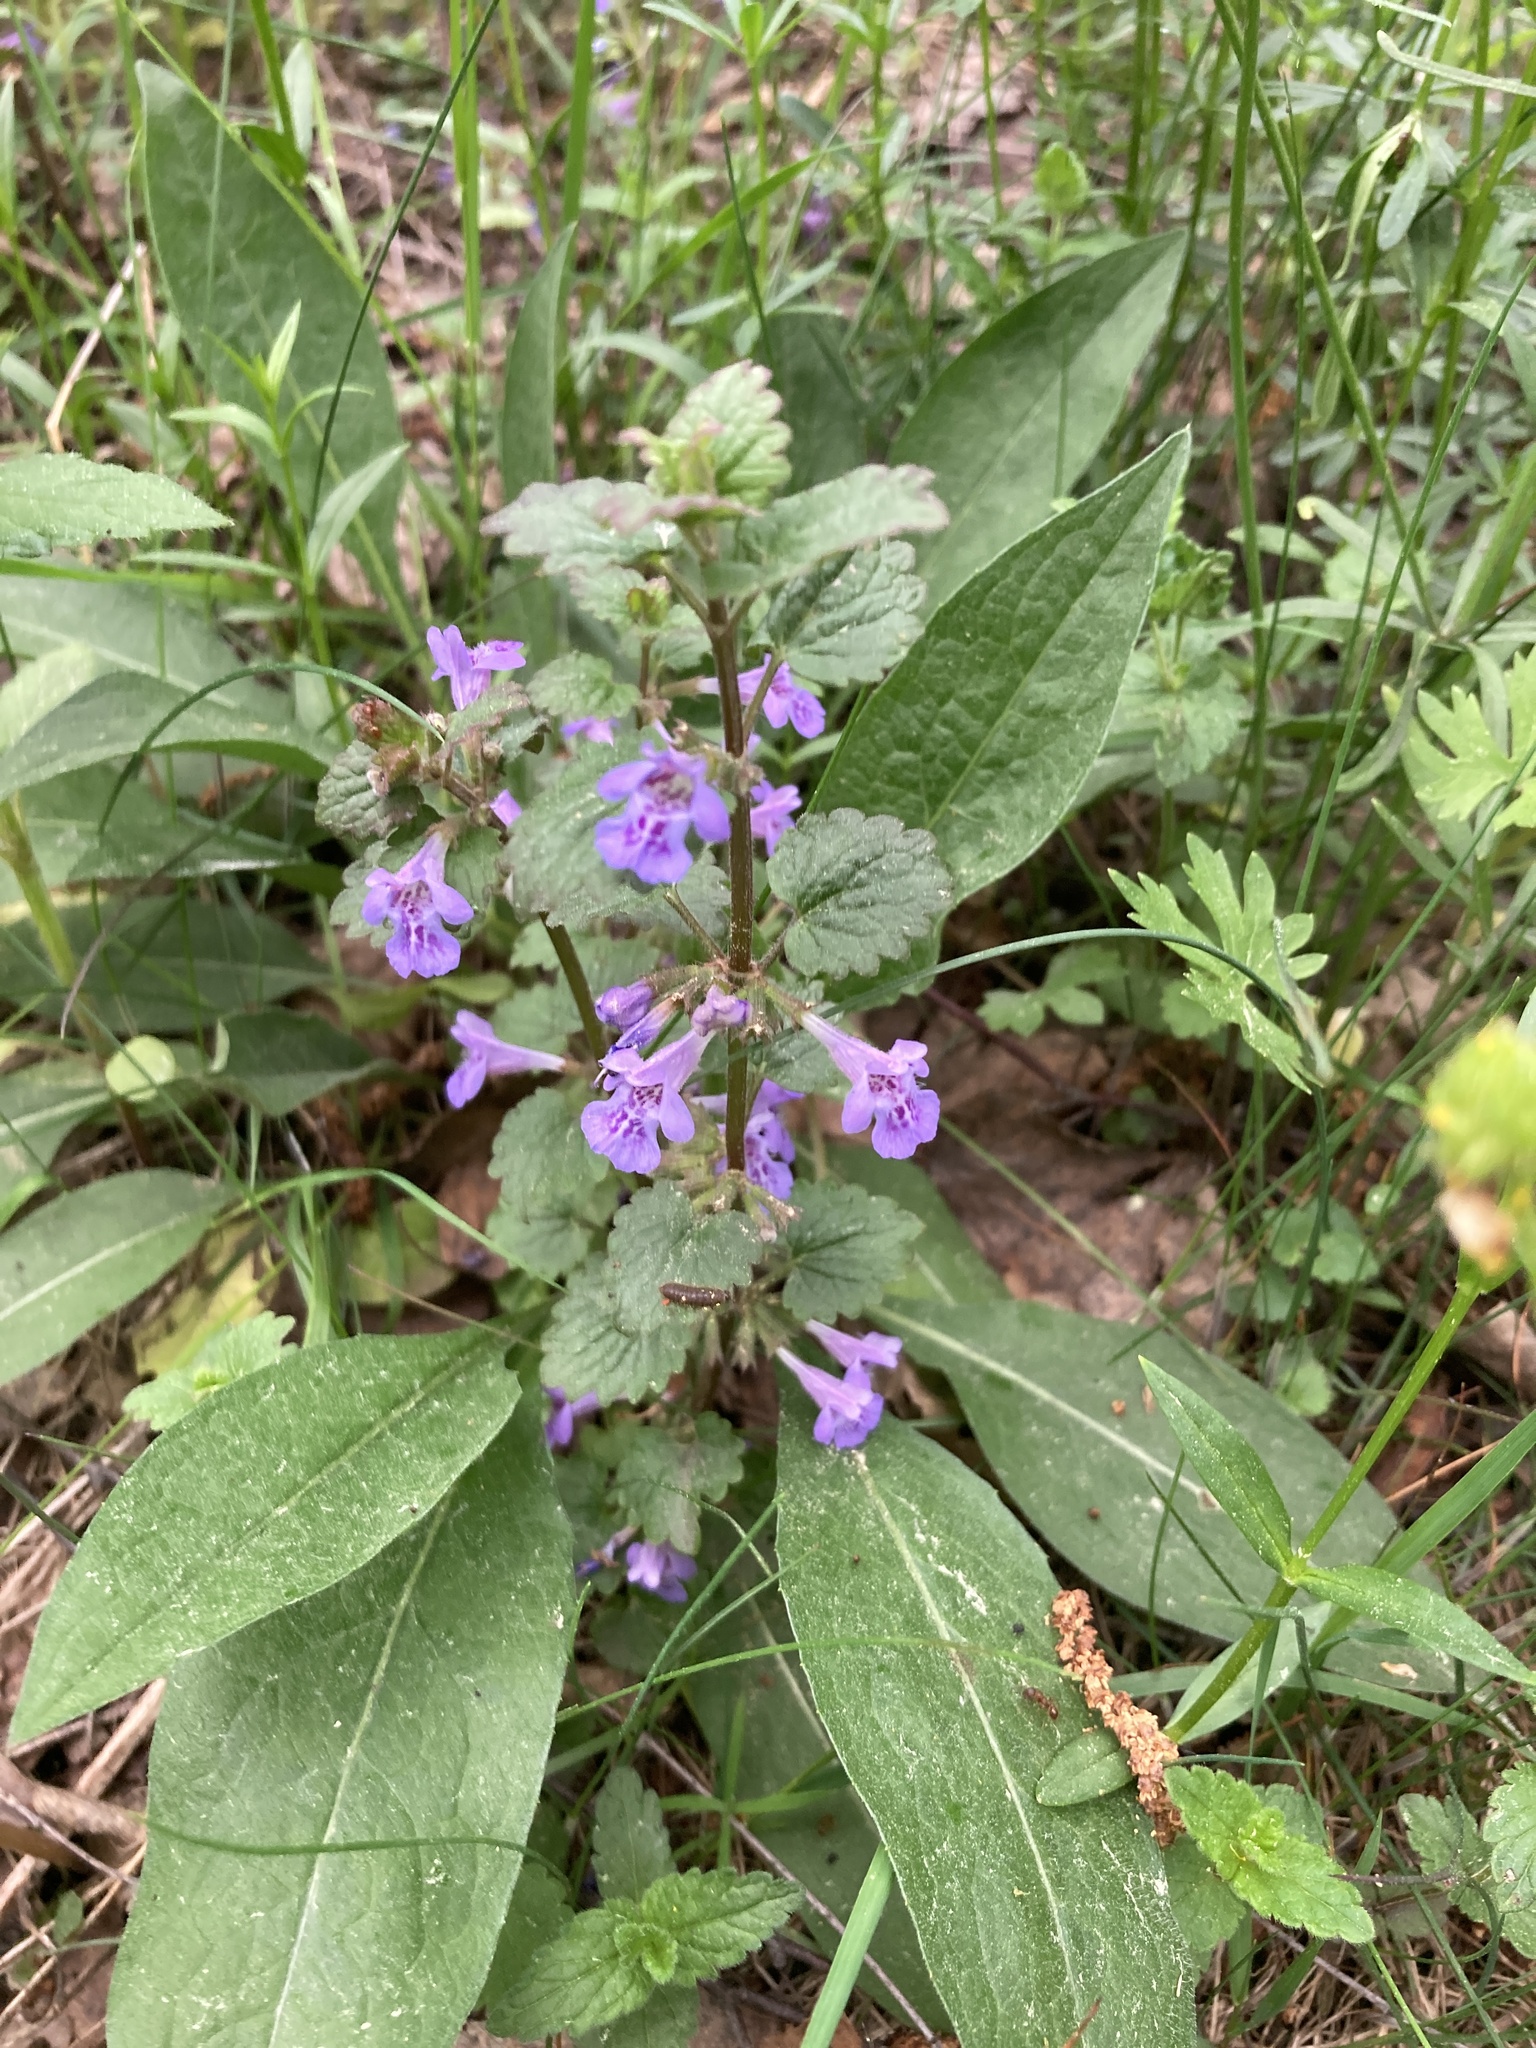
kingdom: Plantae
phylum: Tracheophyta
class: Magnoliopsida
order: Lamiales
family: Lamiaceae
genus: Glechoma
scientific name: Glechoma hederacea
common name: Ground ivy
